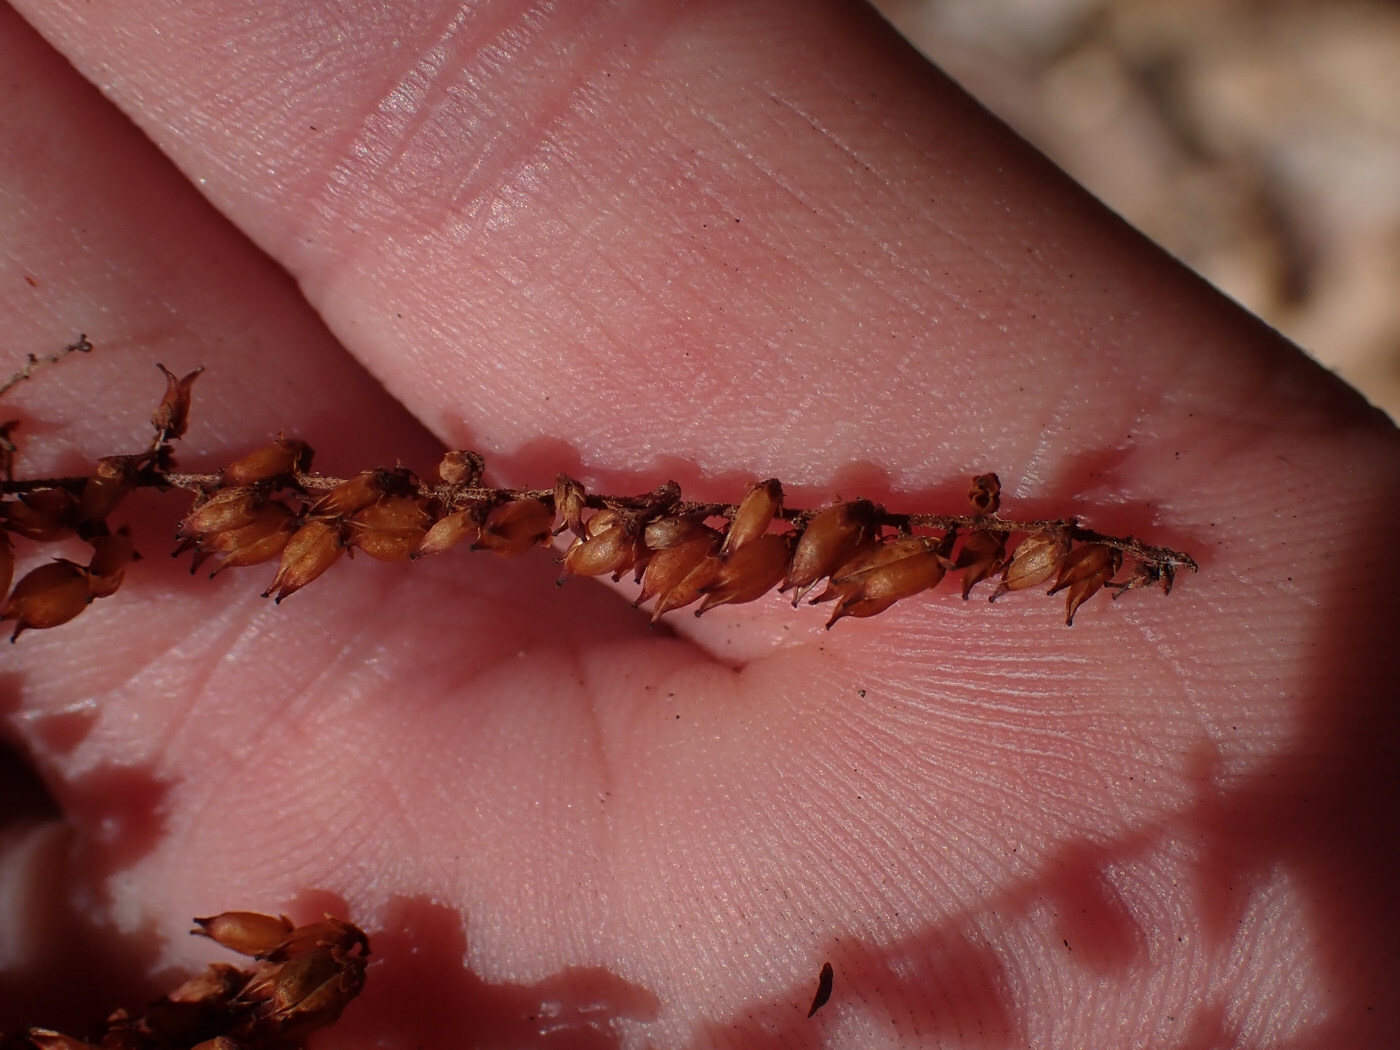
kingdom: Plantae
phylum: Tracheophyta
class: Magnoliopsida
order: Saxifragales
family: Saxifragaceae
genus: Astilbe
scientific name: Astilbe biternata
